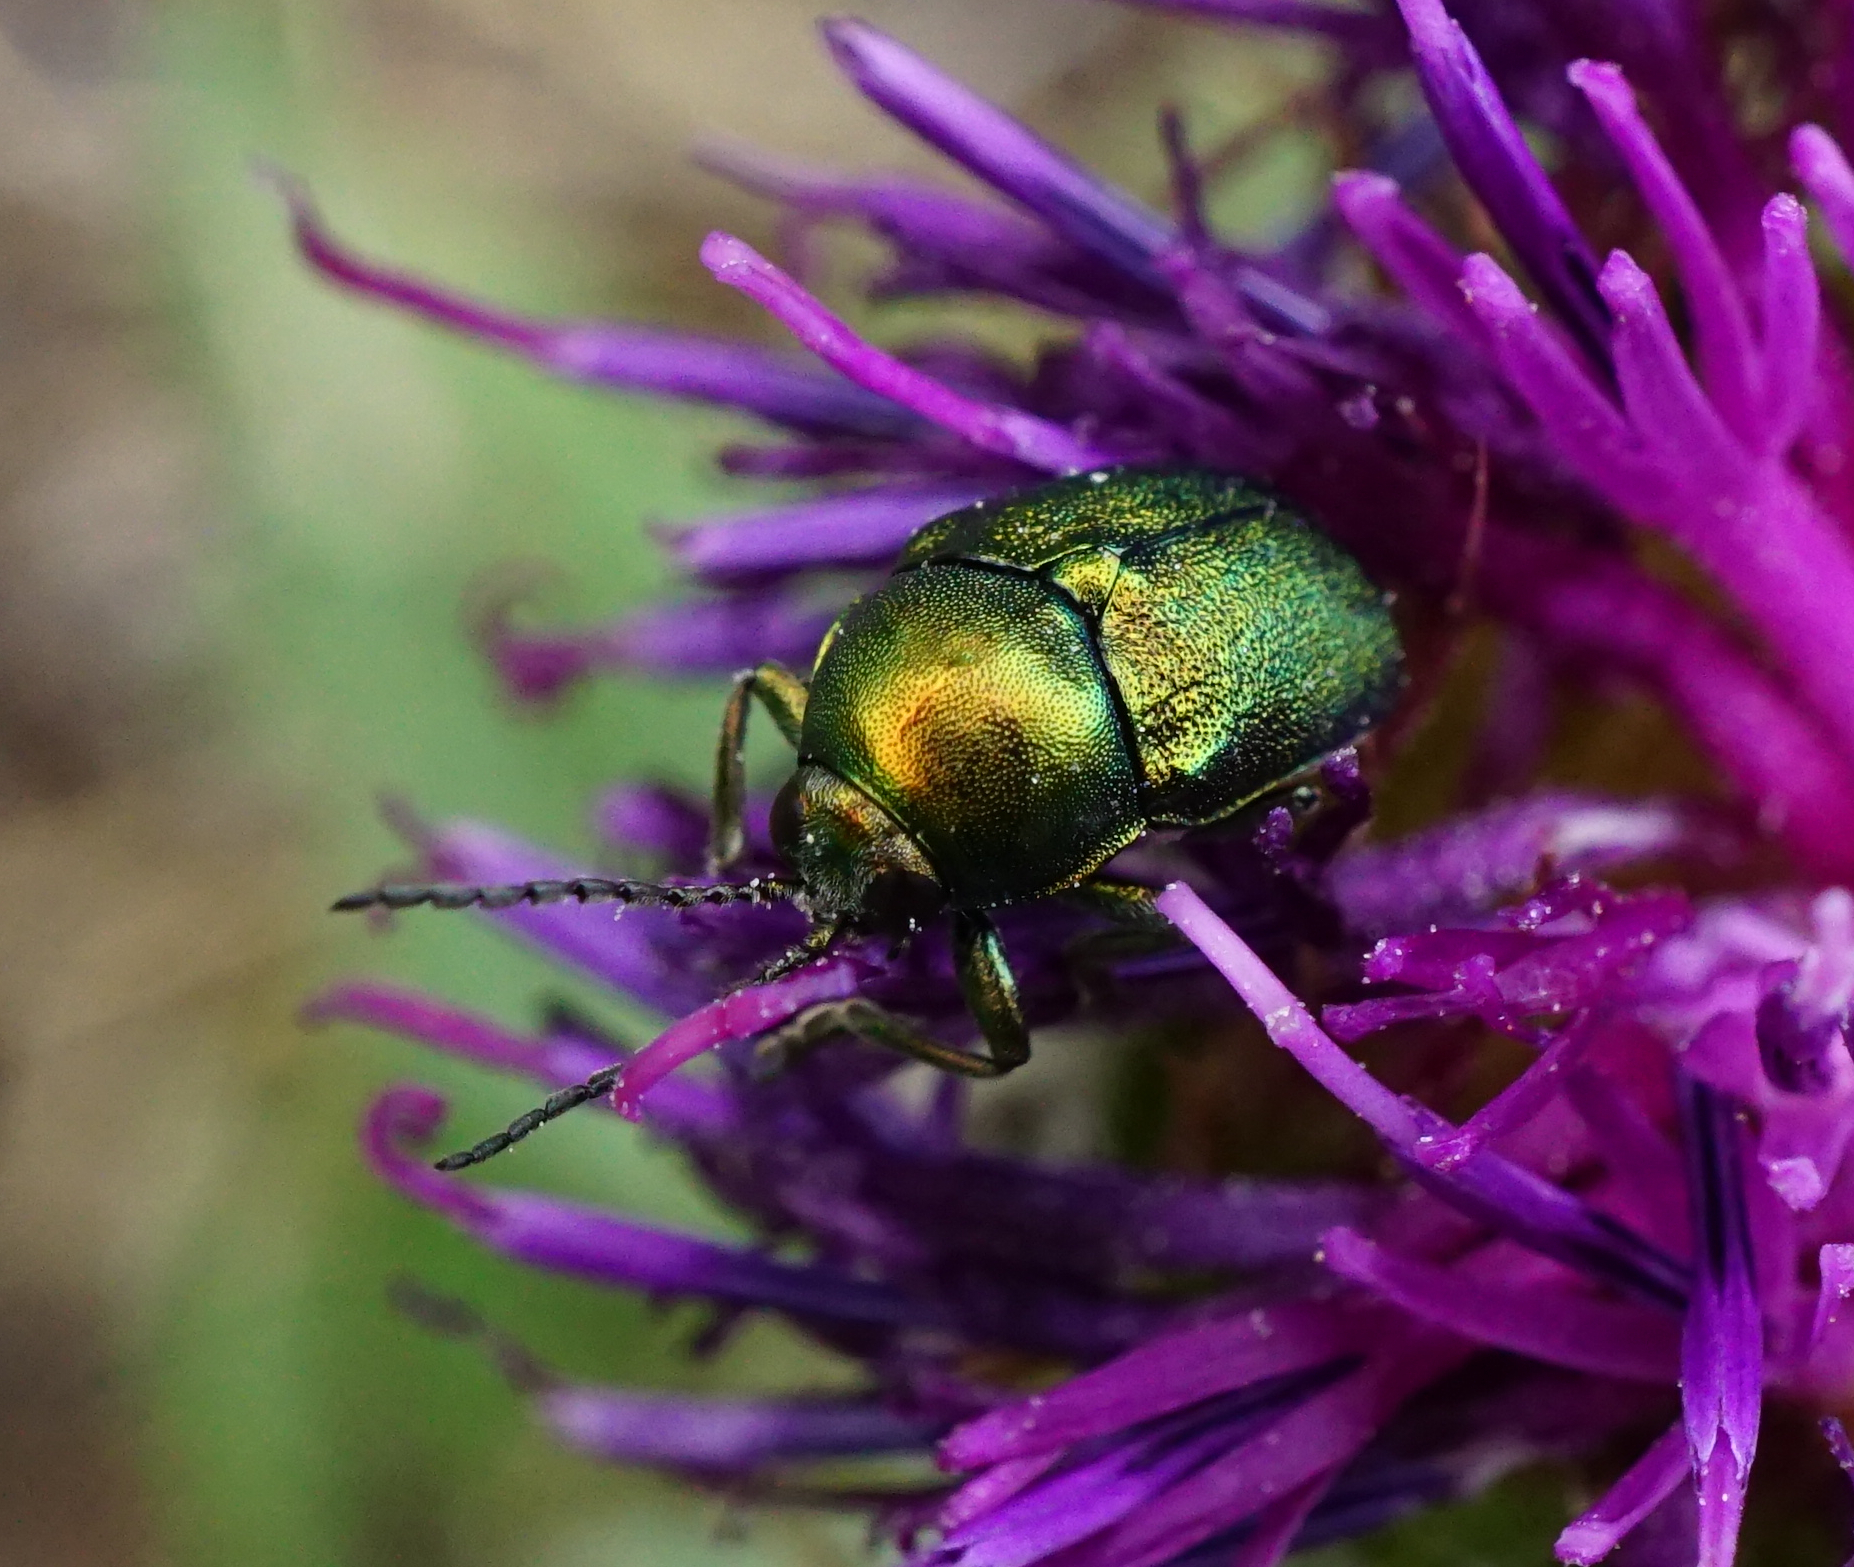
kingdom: Animalia
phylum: Arthropoda
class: Insecta
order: Coleoptera
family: Chrysomelidae
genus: Cryptocephalus
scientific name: Cryptocephalus
